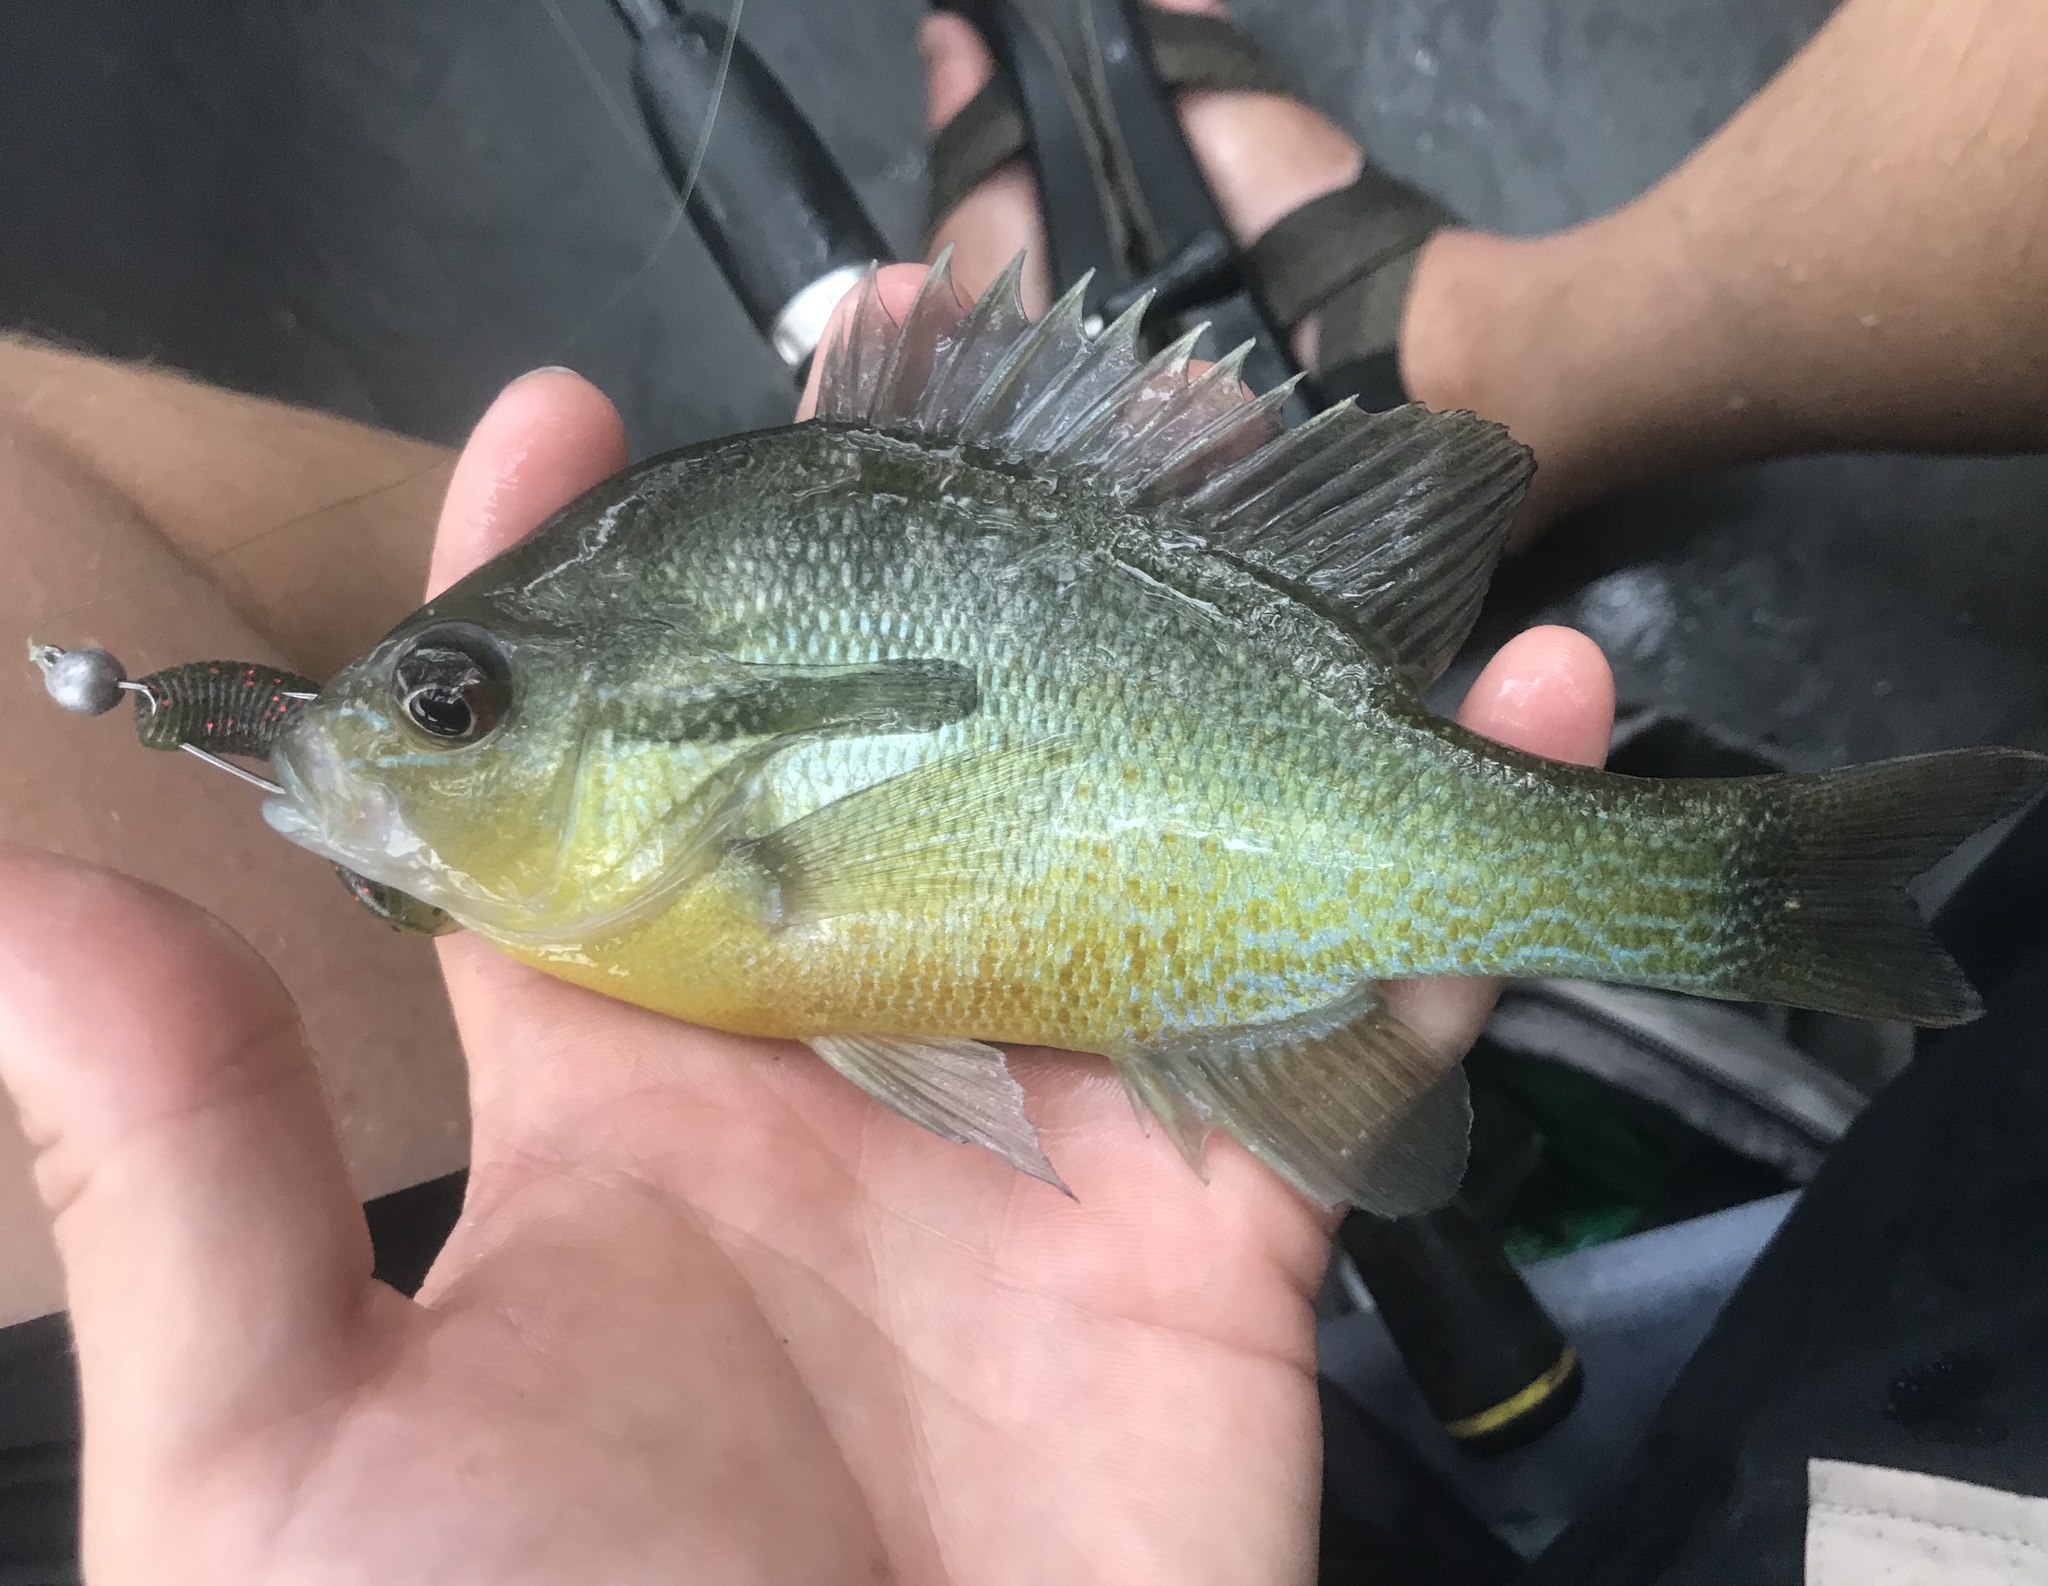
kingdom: Animalia
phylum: Chordata
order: Perciformes
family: Centrarchidae
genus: Lepomis
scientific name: Lepomis auritus
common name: Redbreast sunfish
